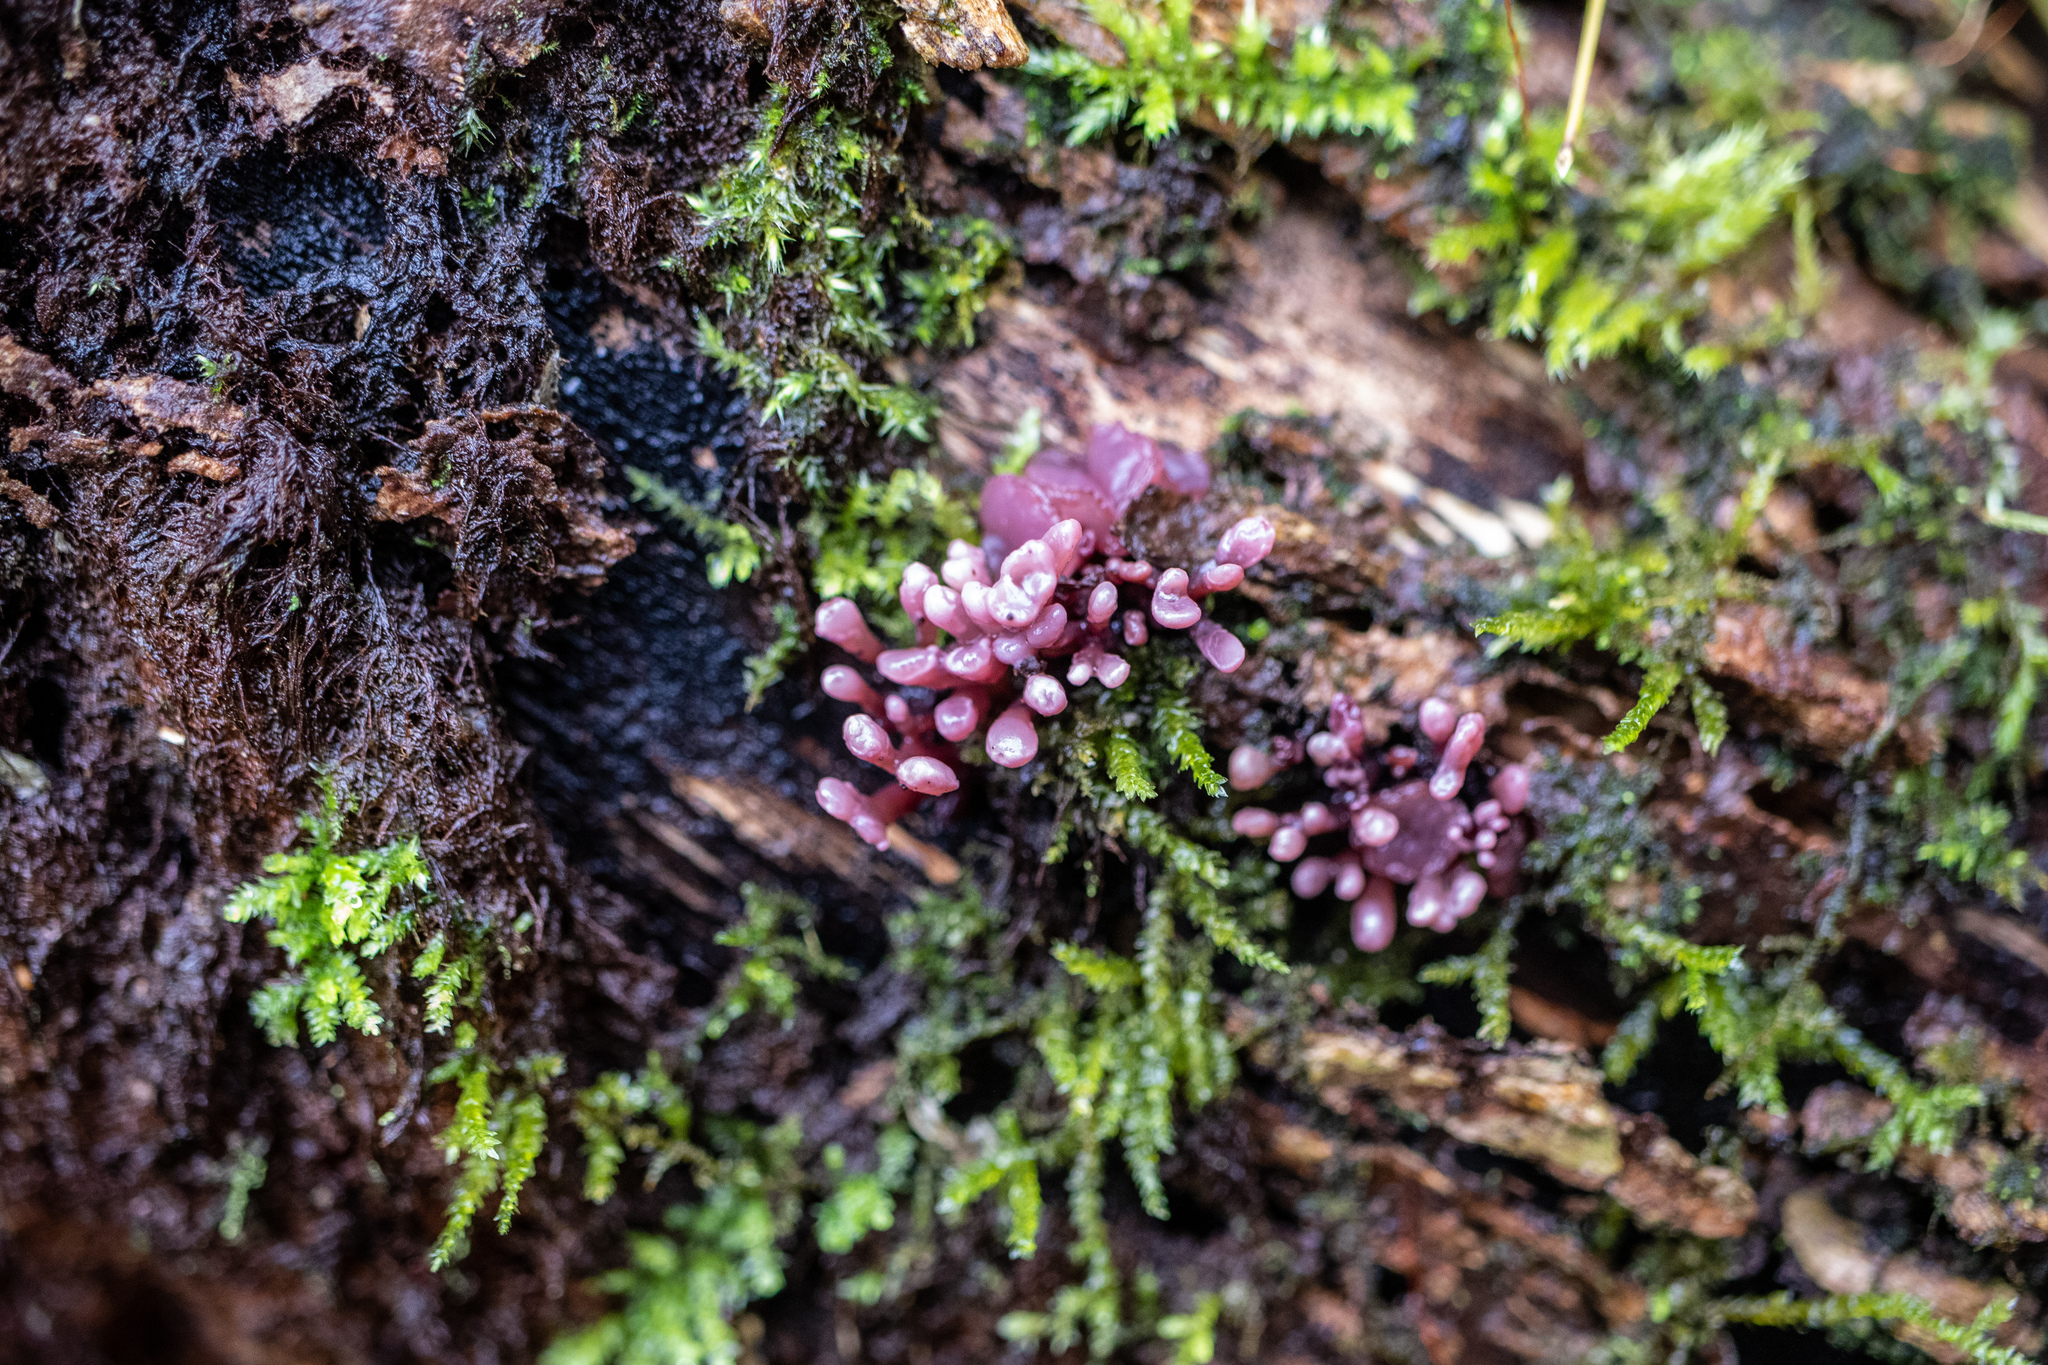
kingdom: Fungi
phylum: Ascomycota
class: Leotiomycetes
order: Helotiales
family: Gelatinodiscaceae
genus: Ascocoryne
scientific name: Ascocoryne sarcoides
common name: Purple jellydisc
